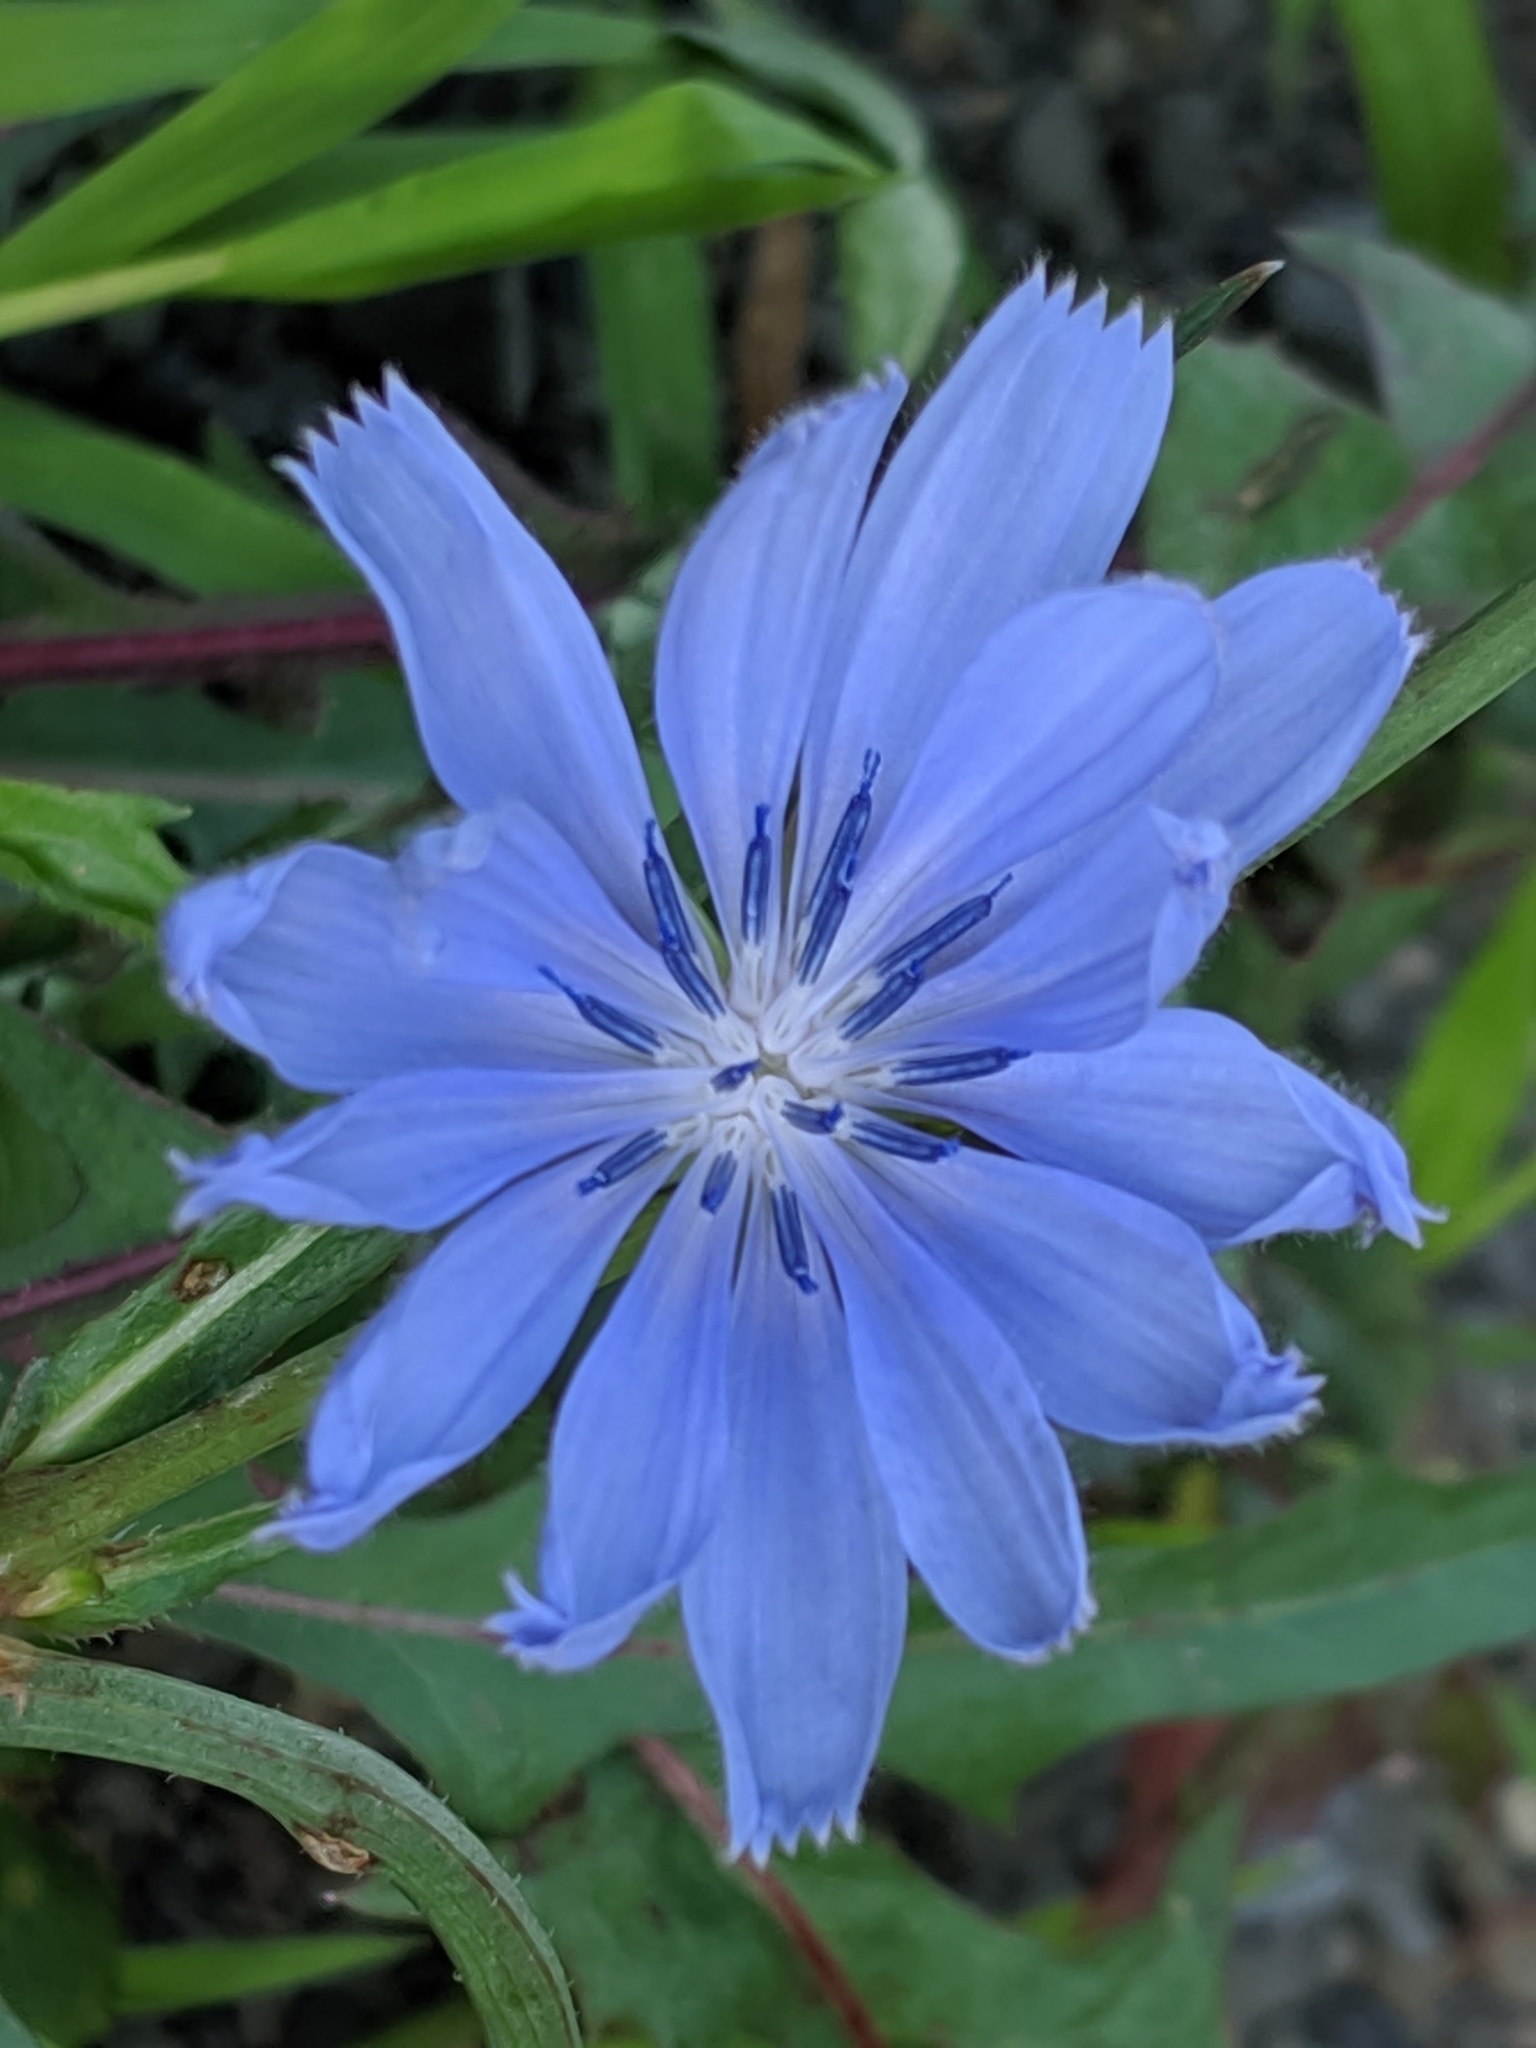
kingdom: Plantae
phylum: Tracheophyta
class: Magnoliopsida
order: Asterales
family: Asteraceae
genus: Cichorium
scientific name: Cichorium intybus
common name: Chicory
